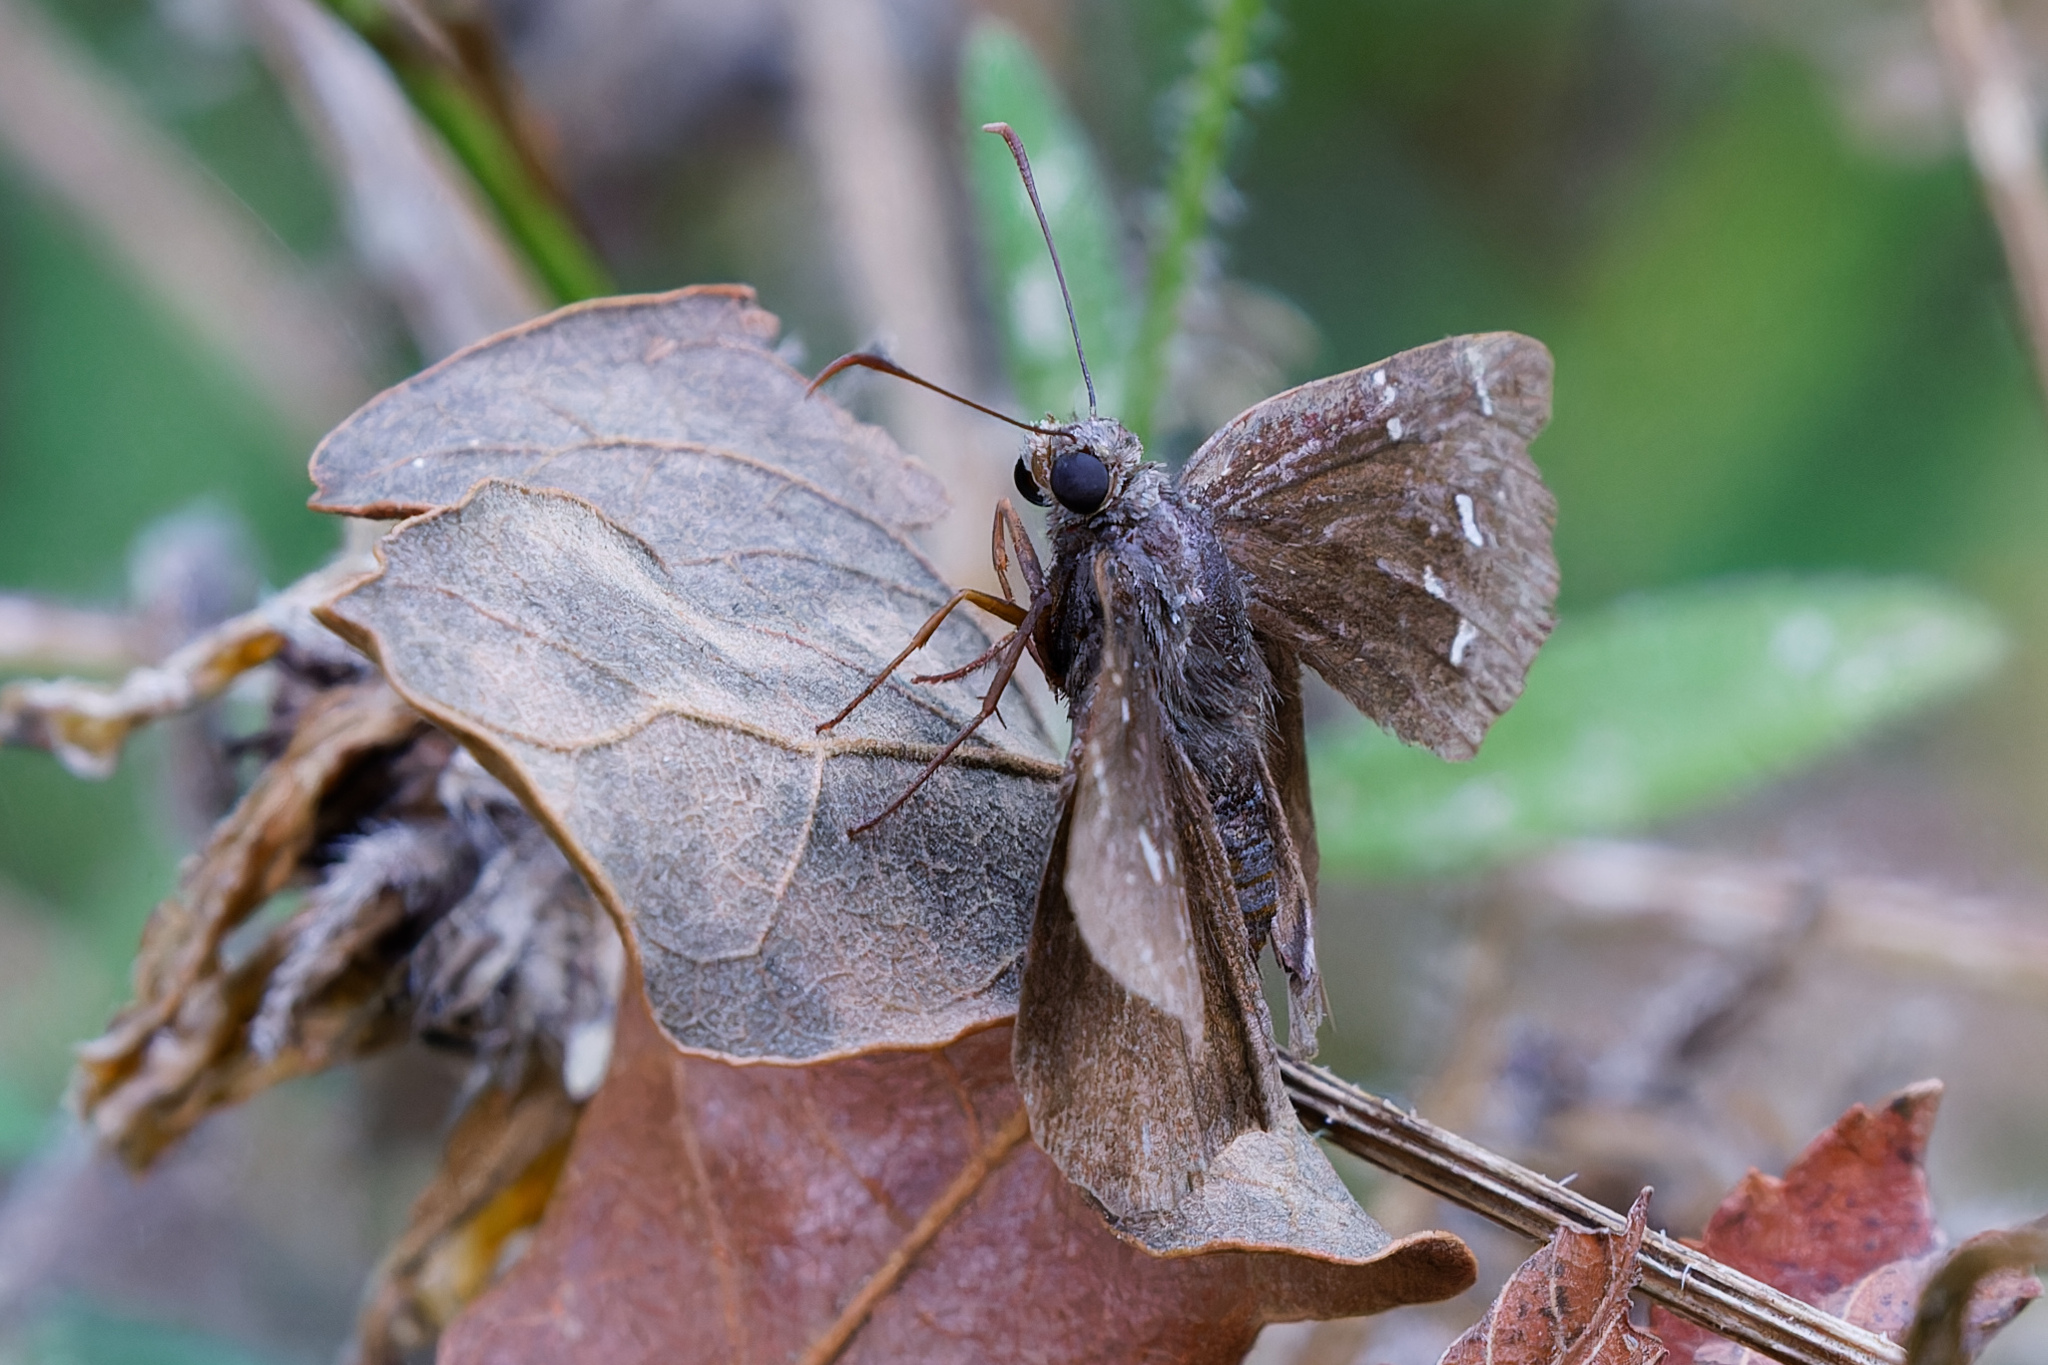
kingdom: Animalia
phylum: Arthropoda
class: Insecta
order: Lepidoptera
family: Hesperiidae
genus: Thorybes
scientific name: Thorybes pylades
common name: Northern cloudywing
